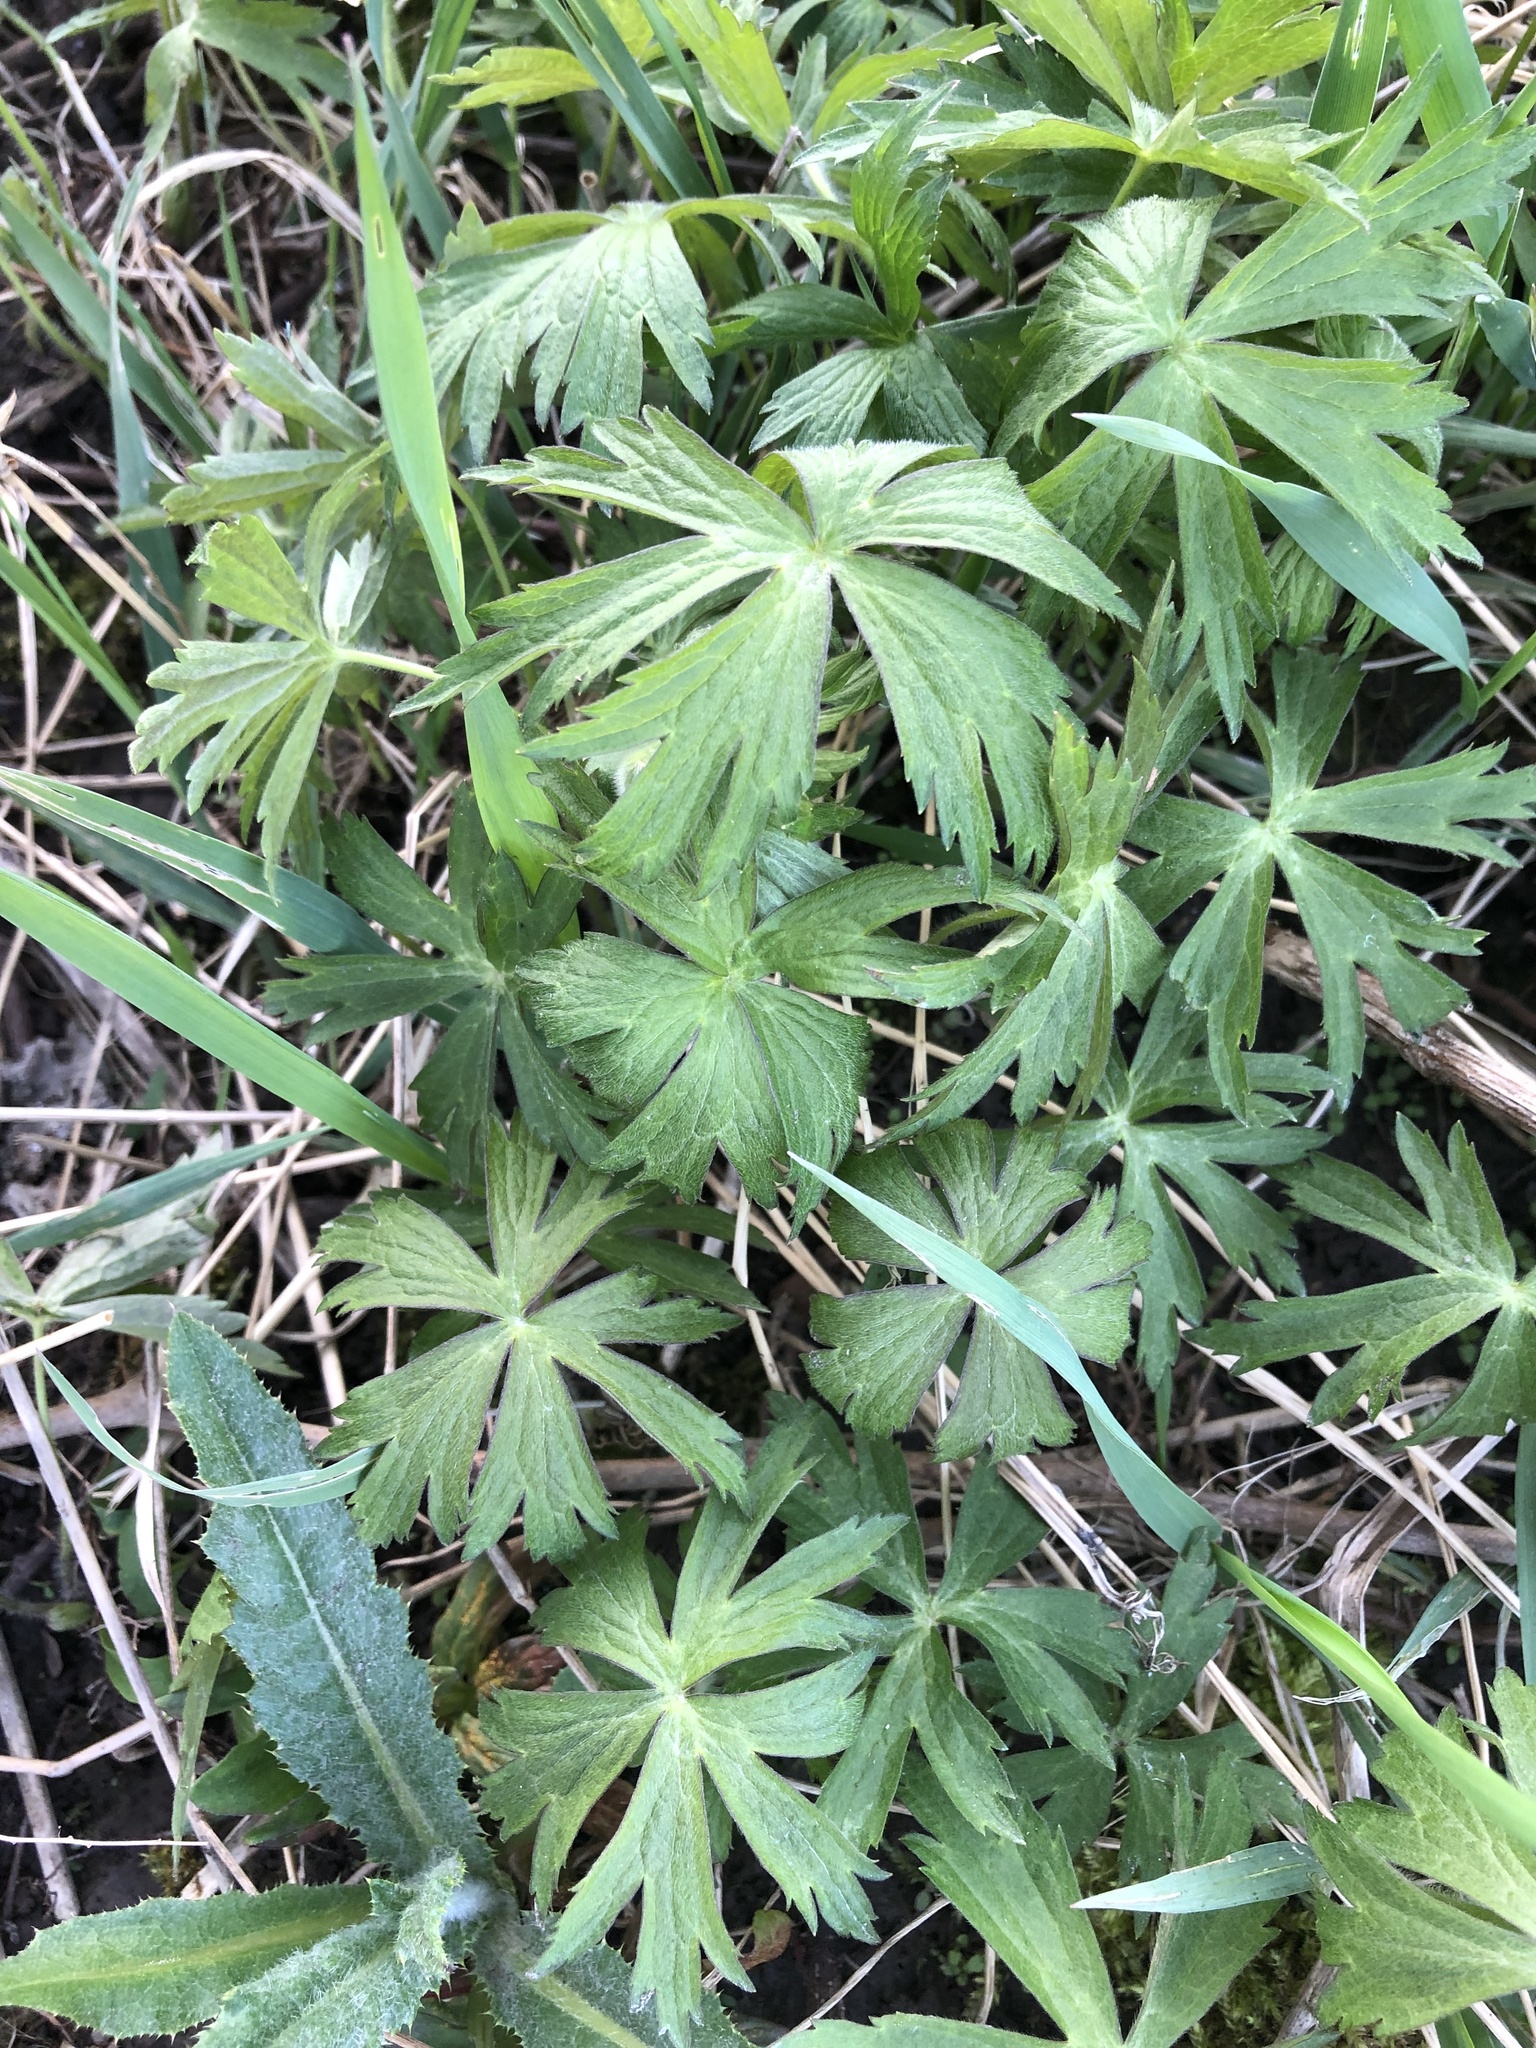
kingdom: Plantae
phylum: Tracheophyta
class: Magnoliopsida
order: Ranunculales
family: Ranunculaceae
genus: Anemonastrum
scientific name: Anemonastrum canadense
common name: Canada anemone
